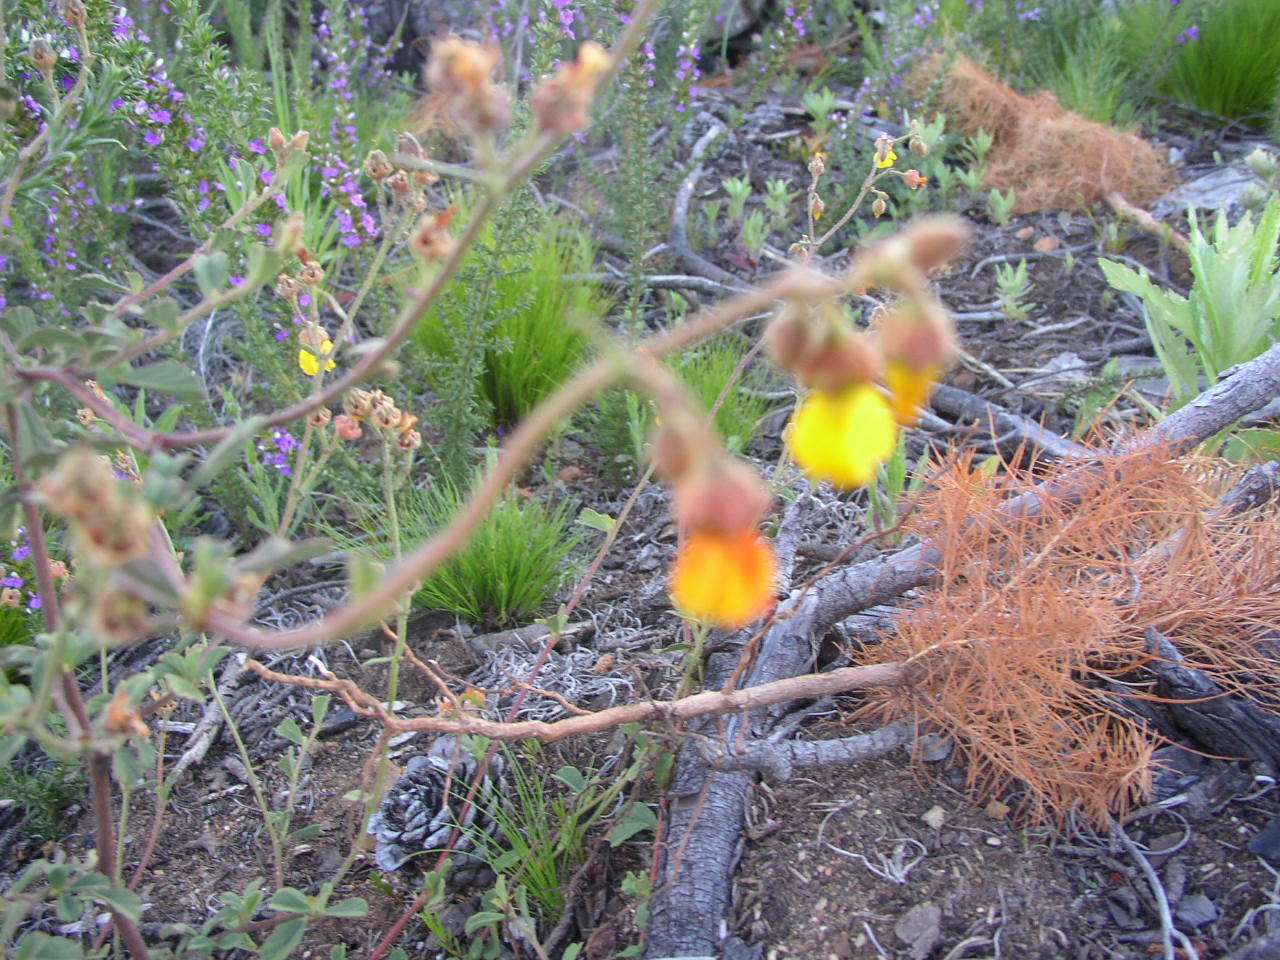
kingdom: Plantae
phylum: Tracheophyta
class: Magnoliopsida
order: Malvales
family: Malvaceae
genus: Hermannia
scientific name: Hermannia multiflora
